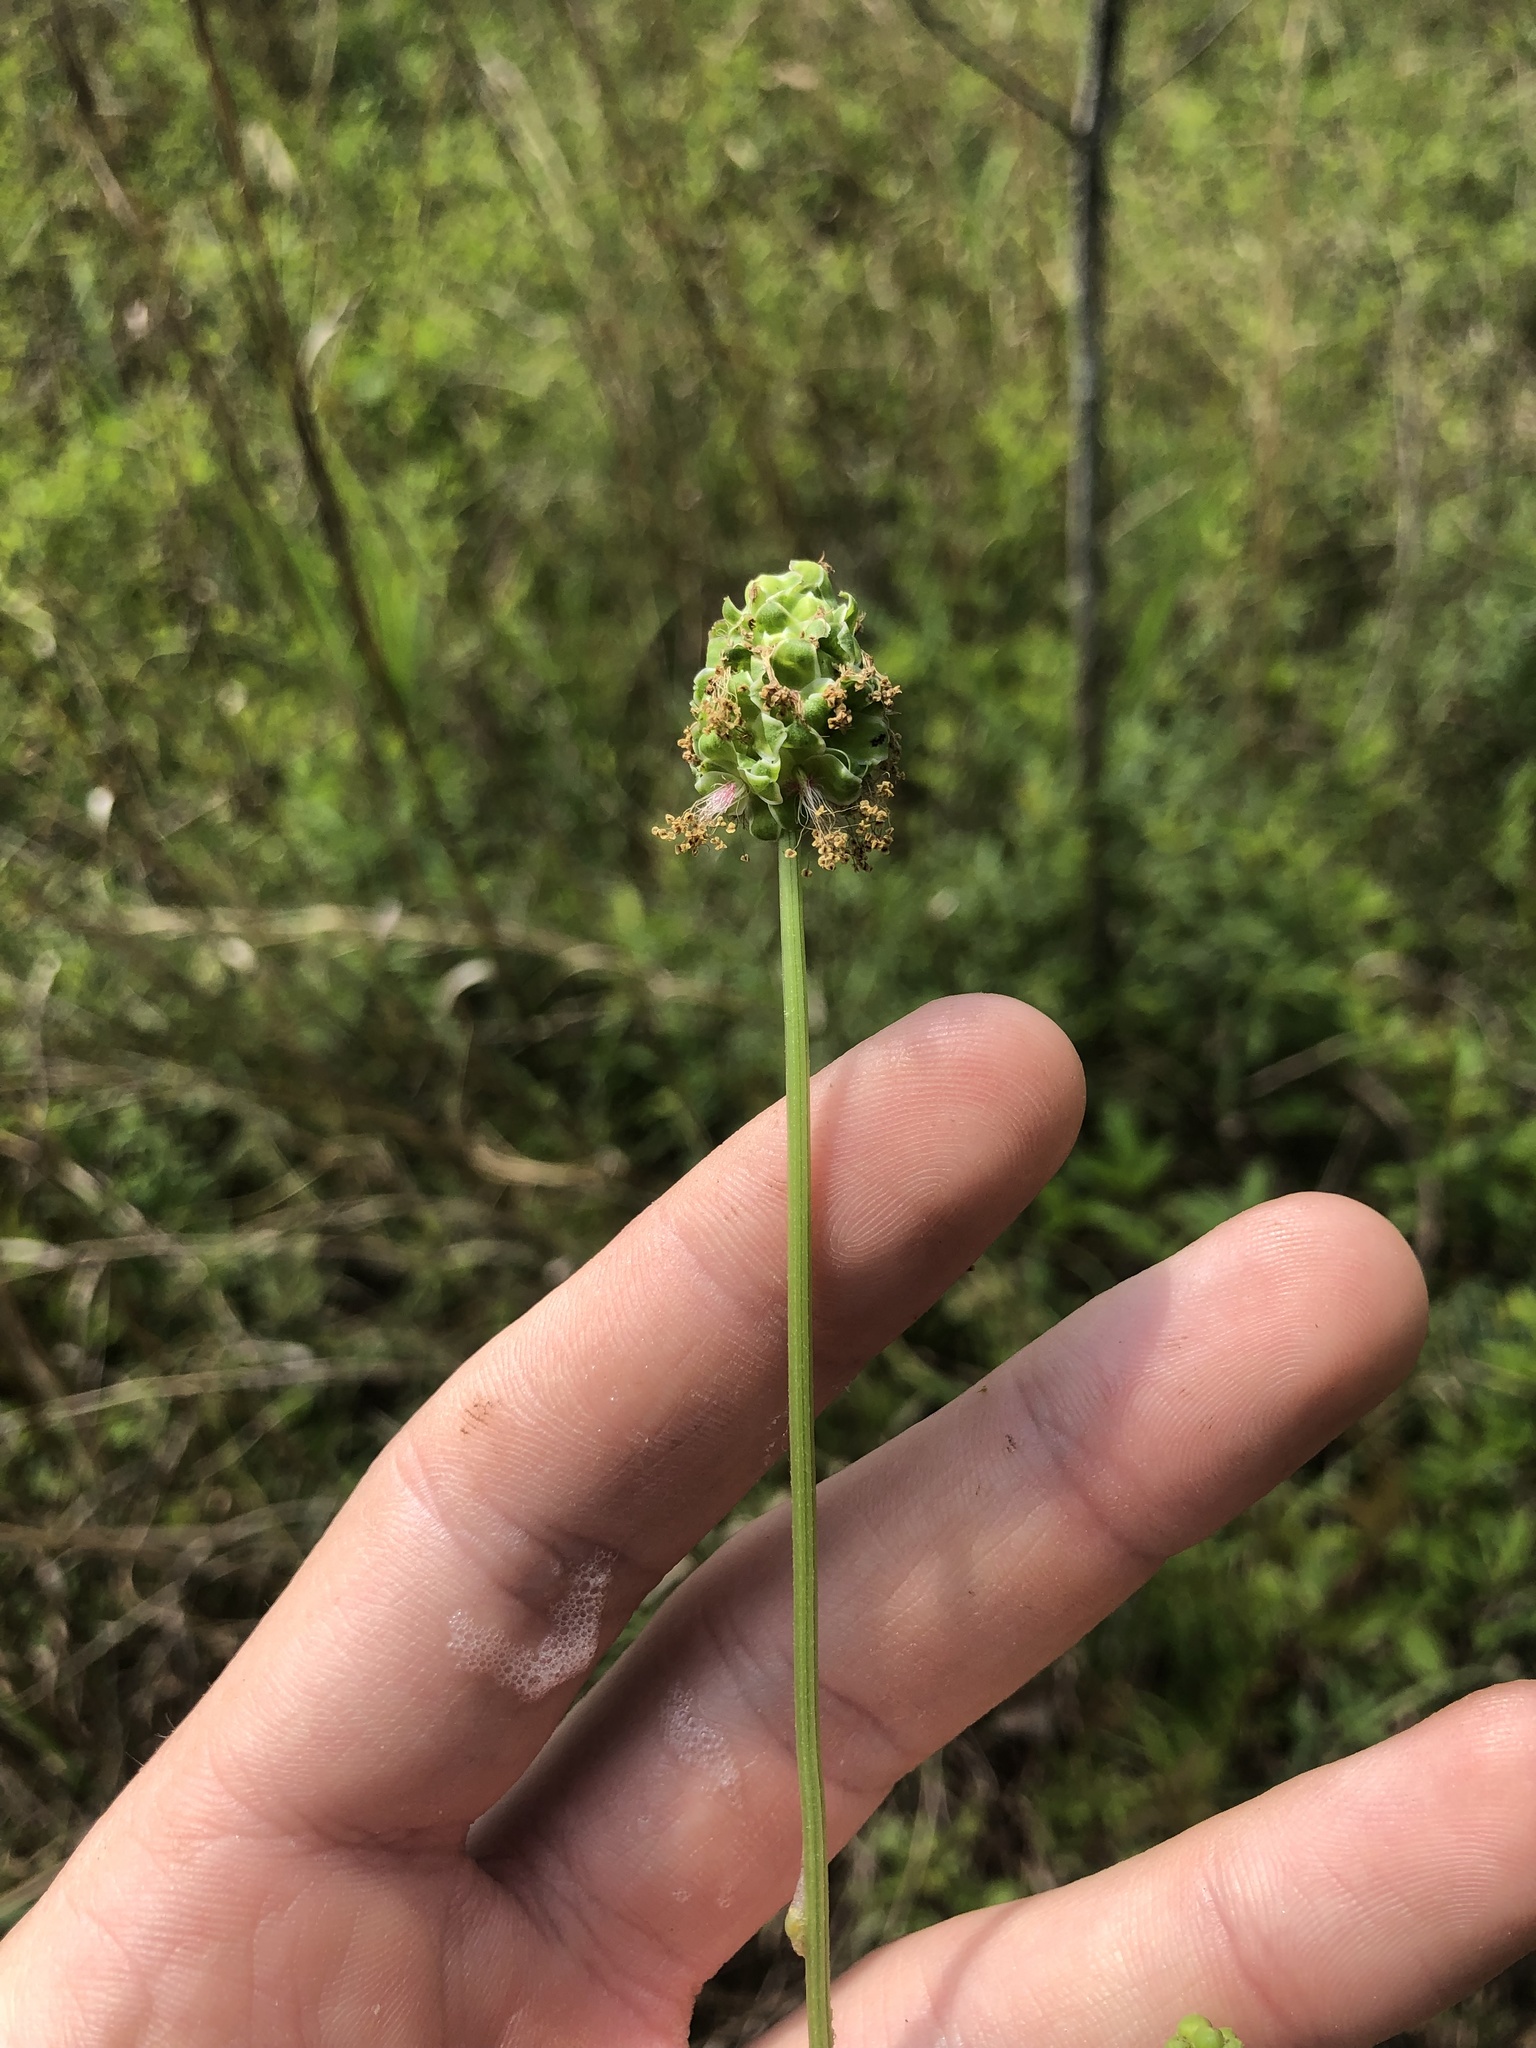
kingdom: Plantae
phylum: Tracheophyta
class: Magnoliopsida
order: Rosales
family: Rosaceae
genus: Poterium
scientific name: Poterium sanguisorba
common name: Salad burnet
